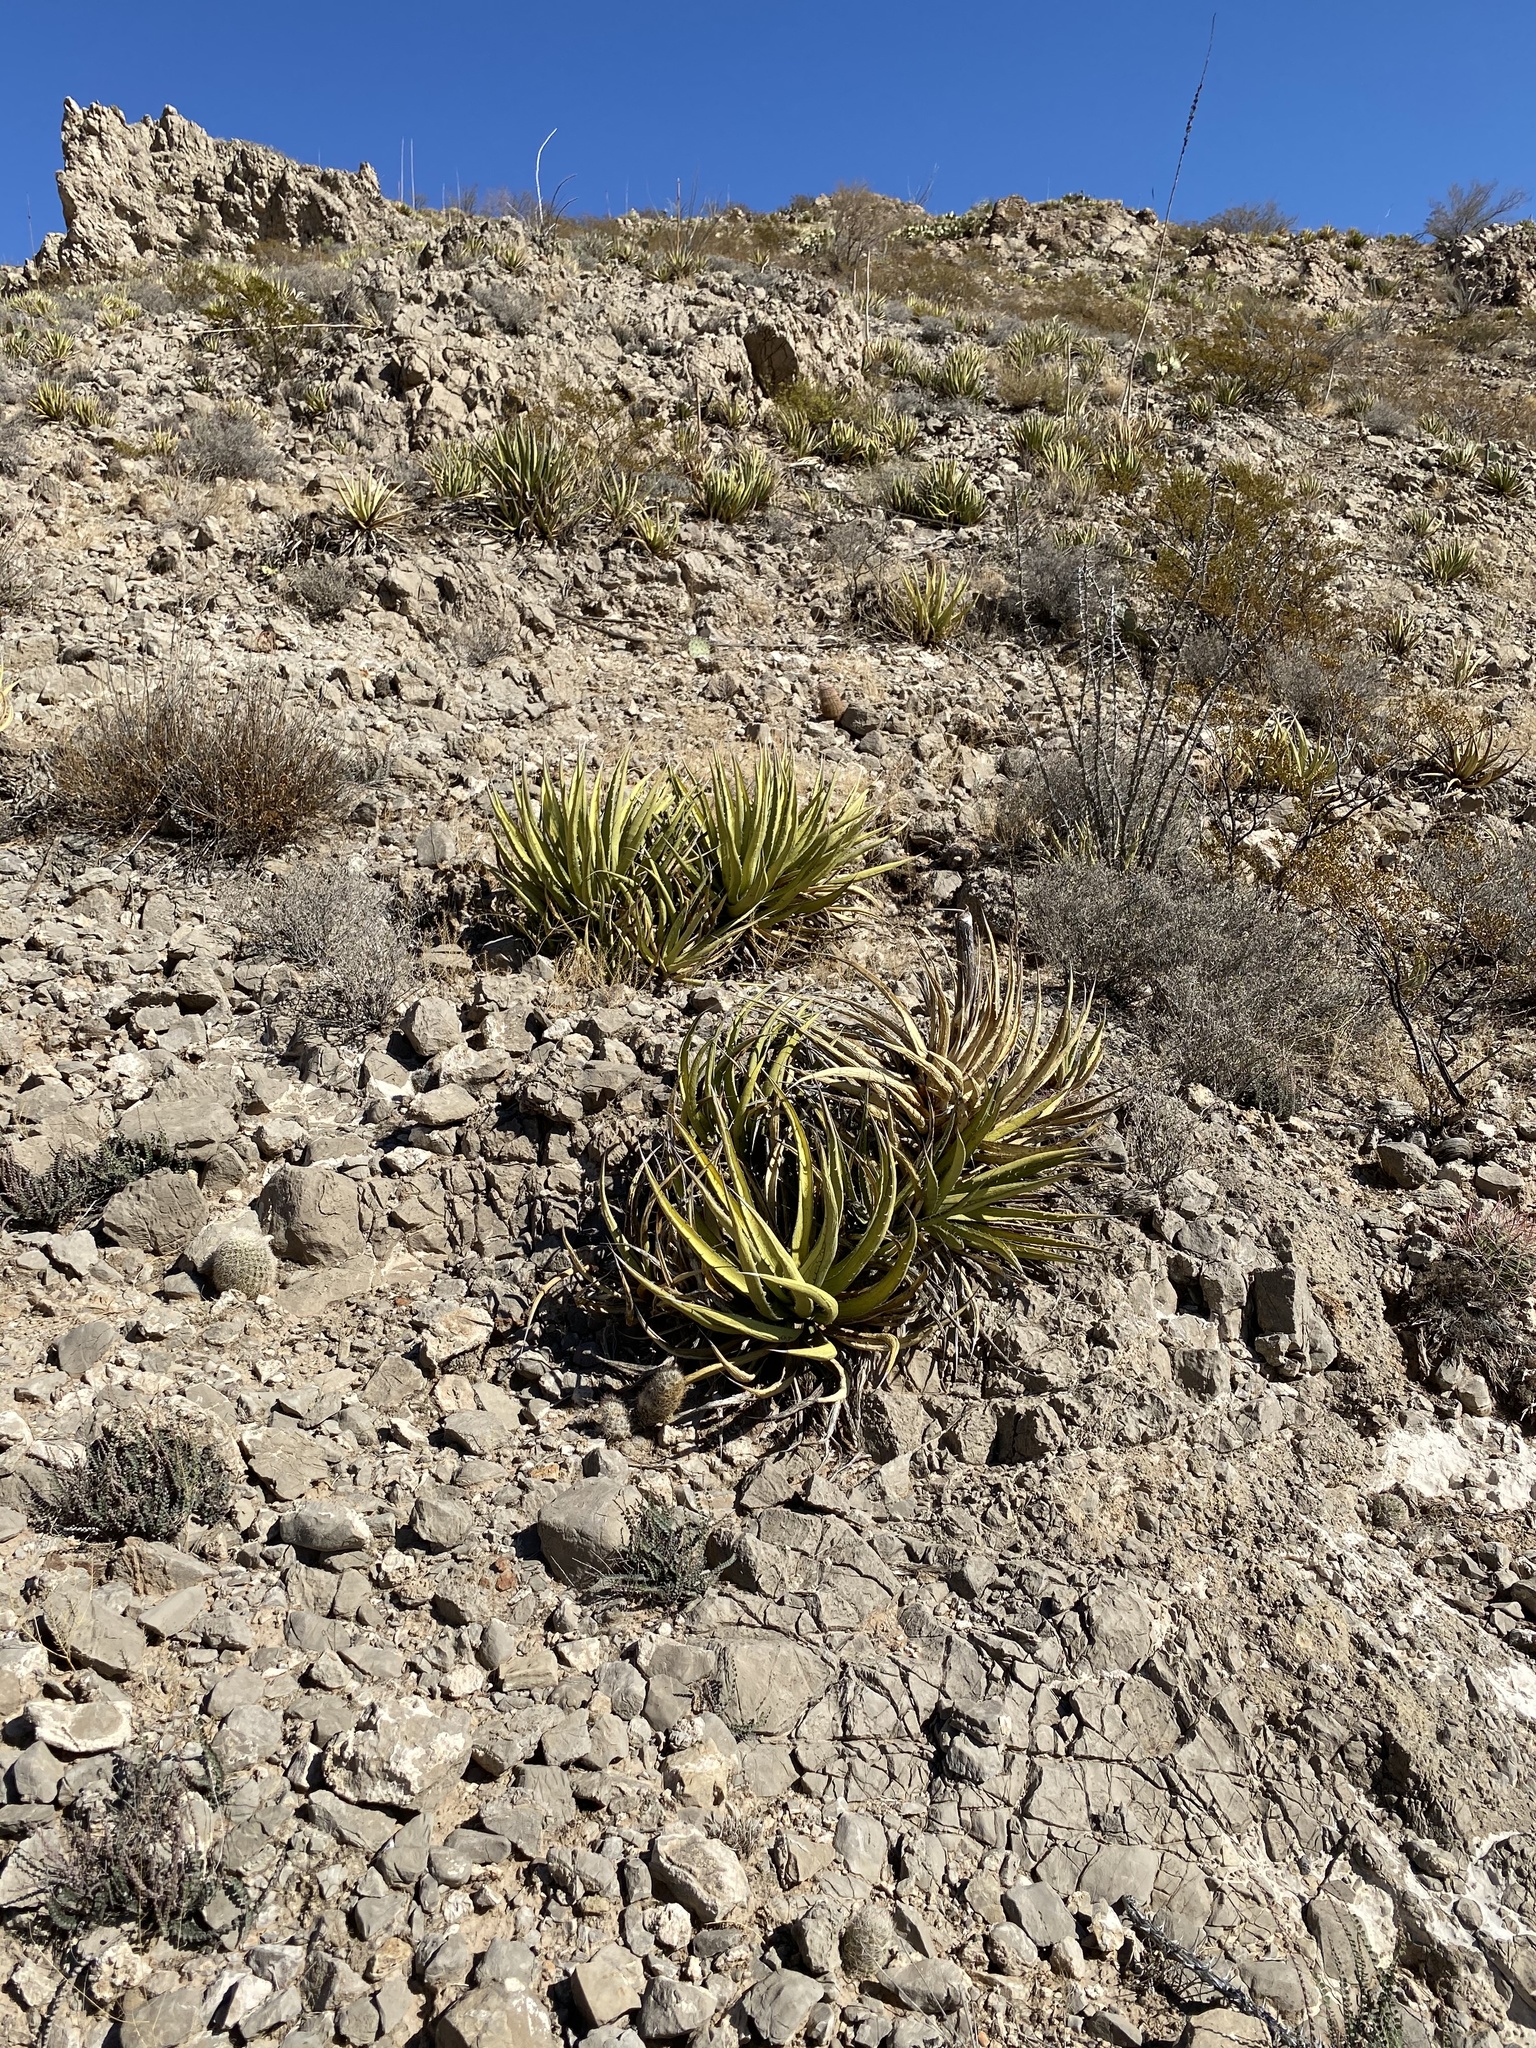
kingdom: Plantae
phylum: Tracheophyta
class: Liliopsida
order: Asparagales
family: Asparagaceae
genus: Agave
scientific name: Agave lechuguilla
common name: Lecheguilla agave
